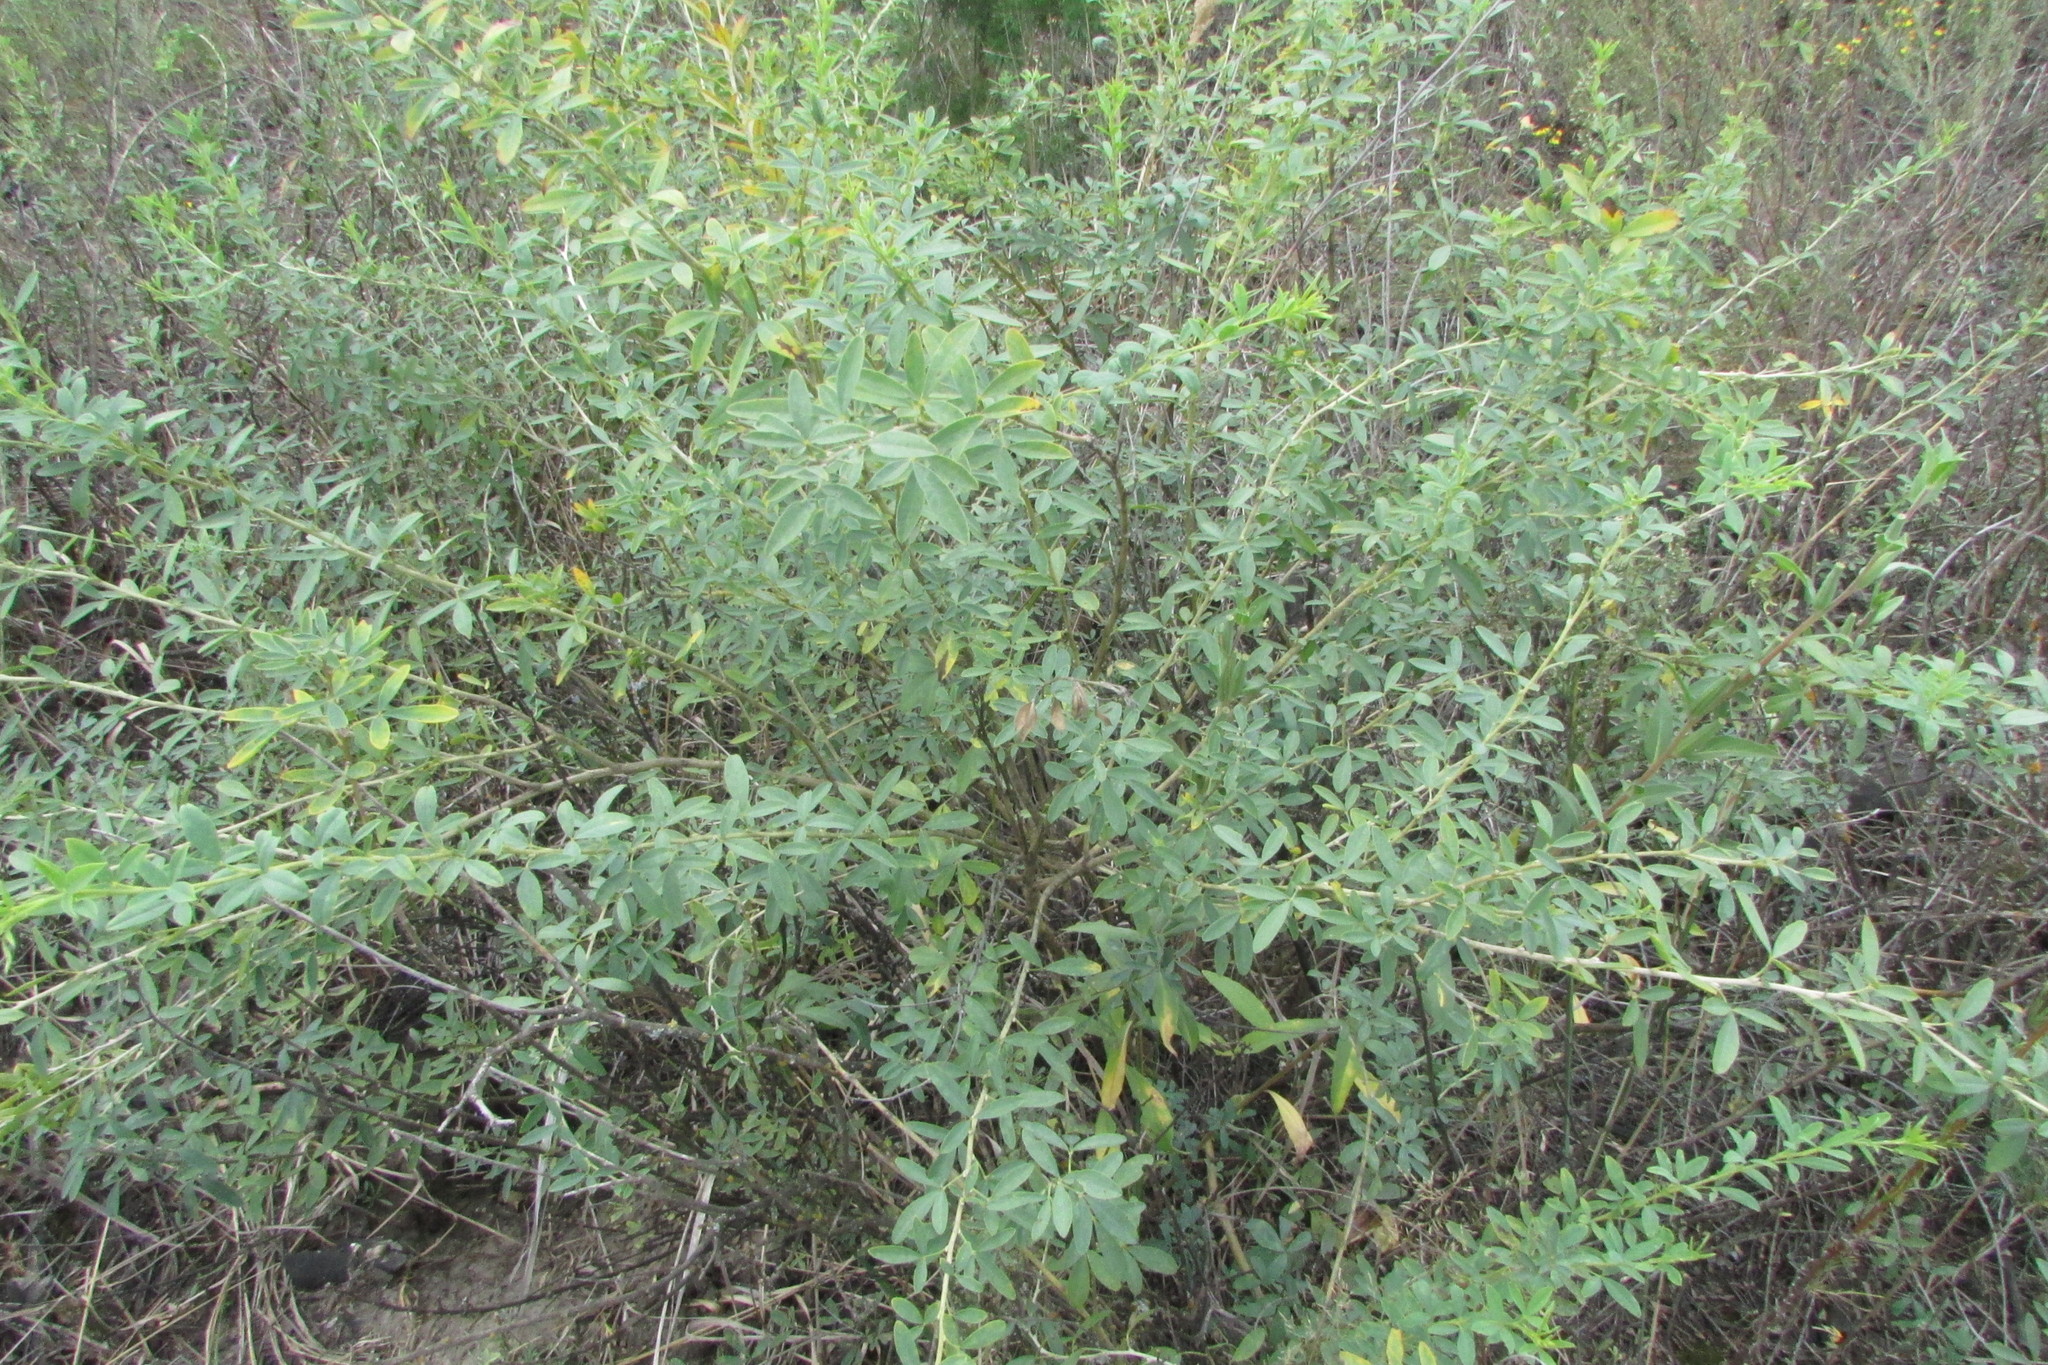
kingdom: Plantae
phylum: Tracheophyta
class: Magnoliopsida
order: Fabales
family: Fabaceae
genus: Chamaecytisus
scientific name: Chamaecytisus ruthenicus
